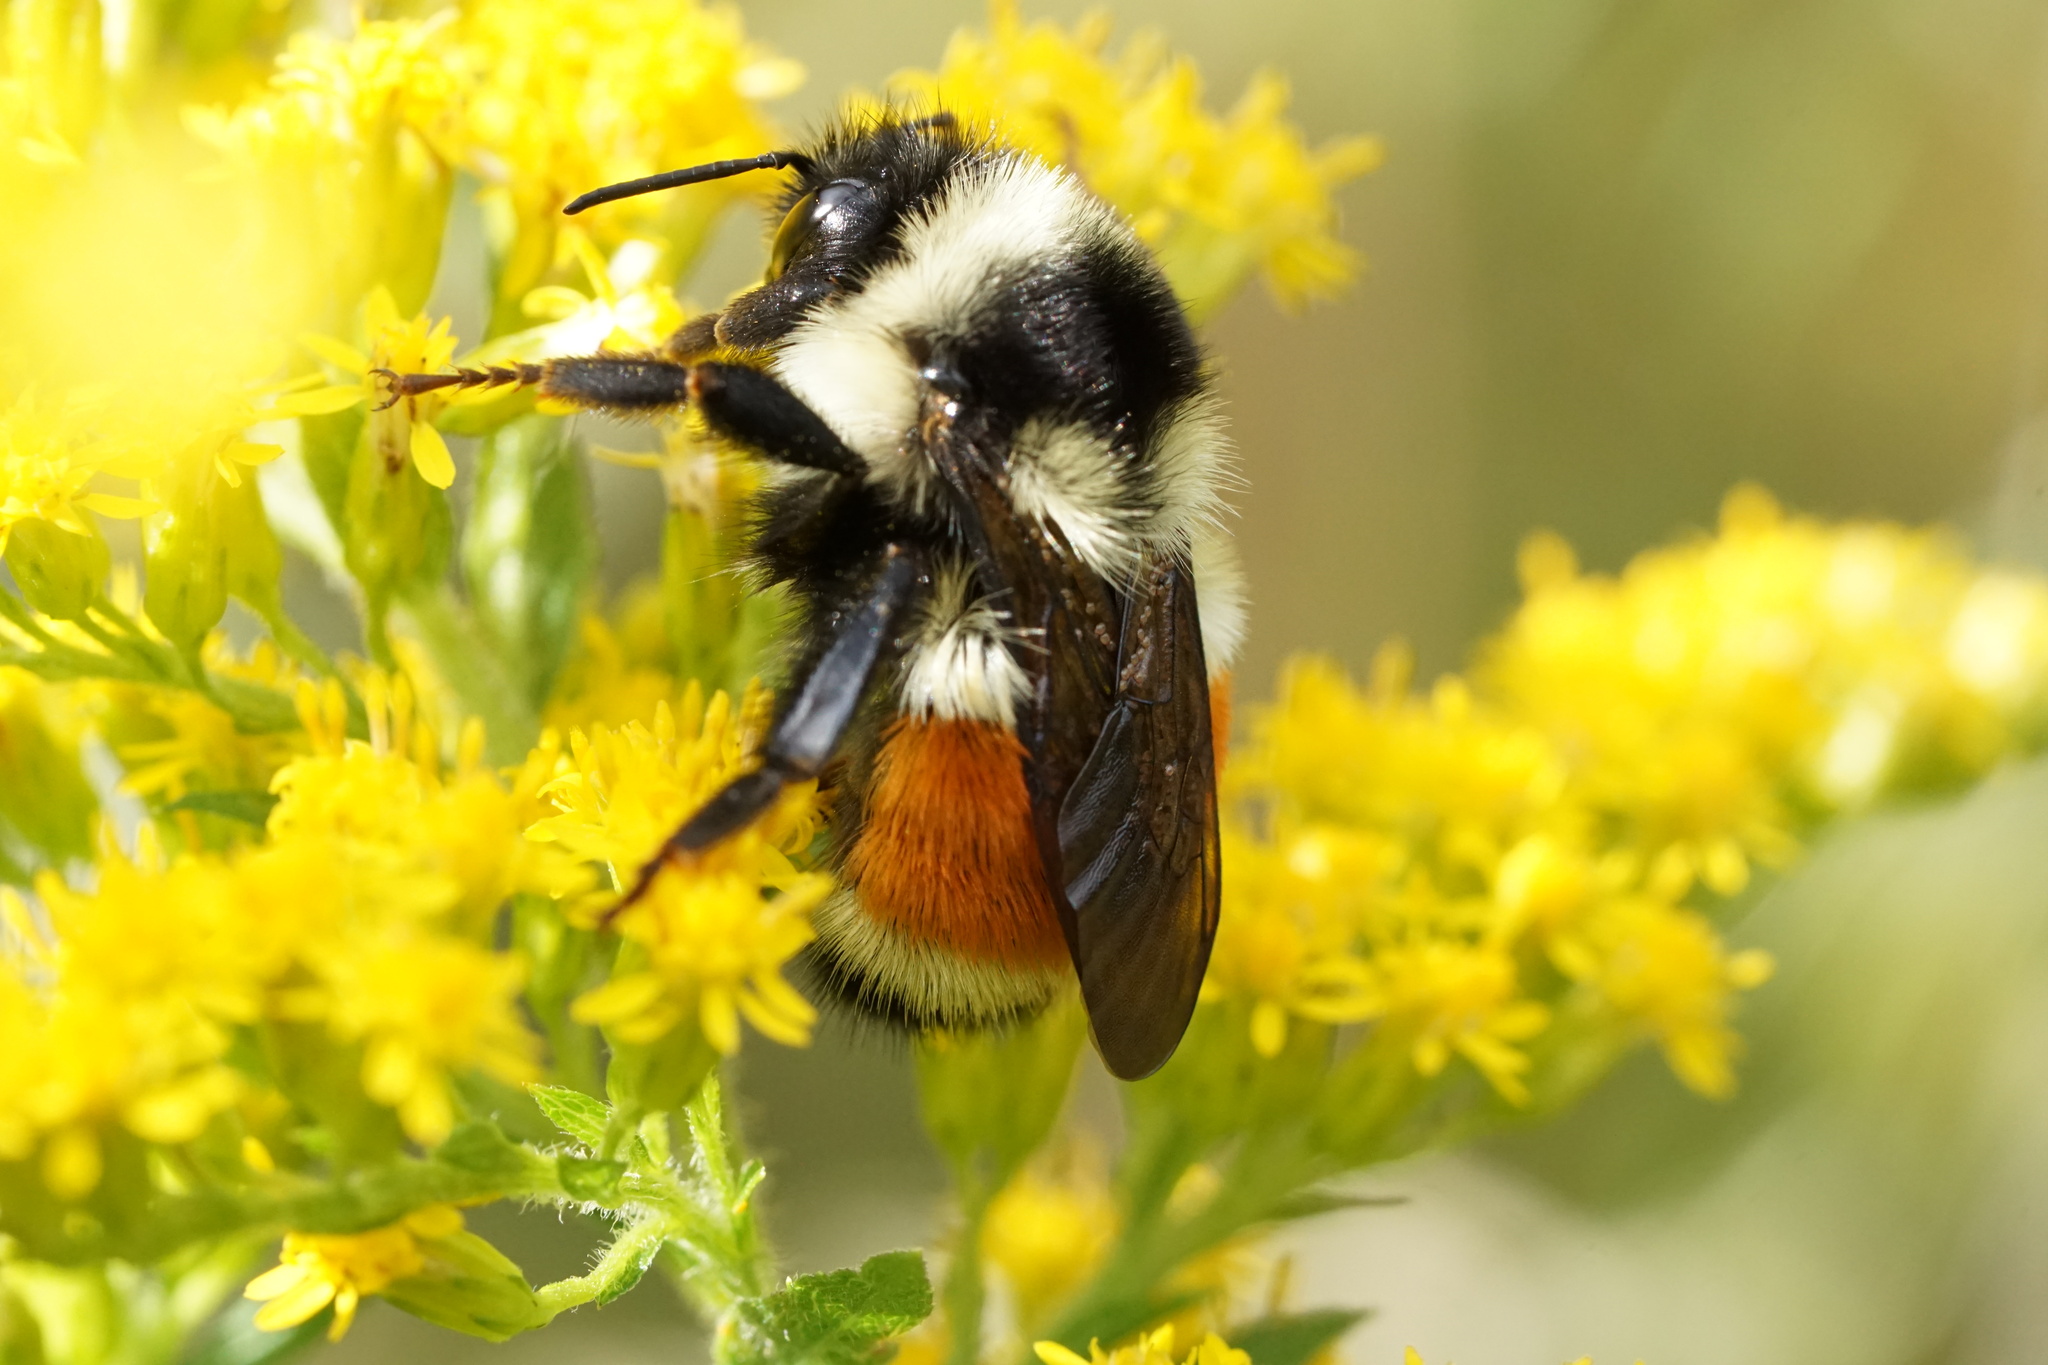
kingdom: Animalia
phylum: Arthropoda
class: Insecta
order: Hymenoptera
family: Apidae
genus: Bombus
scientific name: Bombus ternarius
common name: Tri-colored bumble bee
